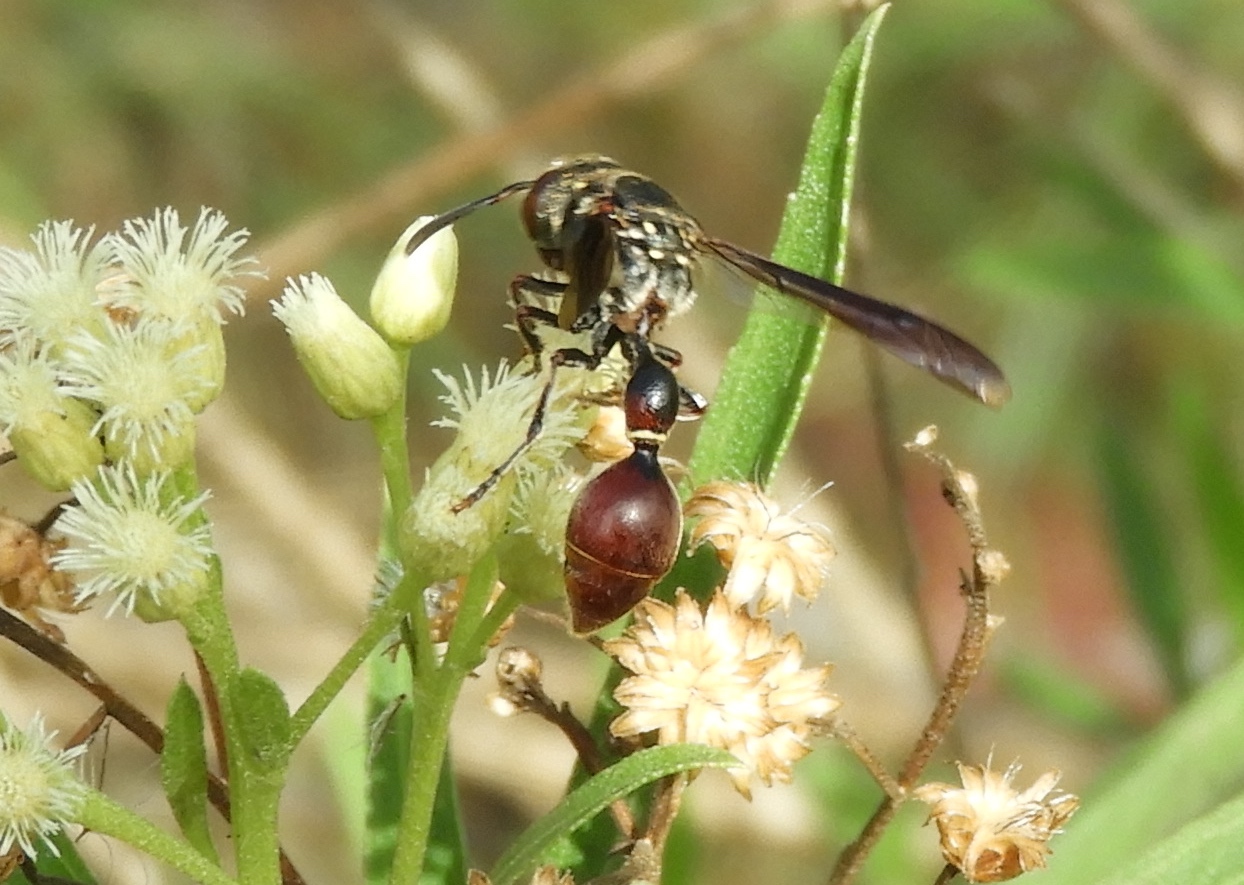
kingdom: Animalia
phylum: Arthropoda
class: Insecta
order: Hymenoptera
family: Eumenidae
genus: Zethus
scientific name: Zethus analis
